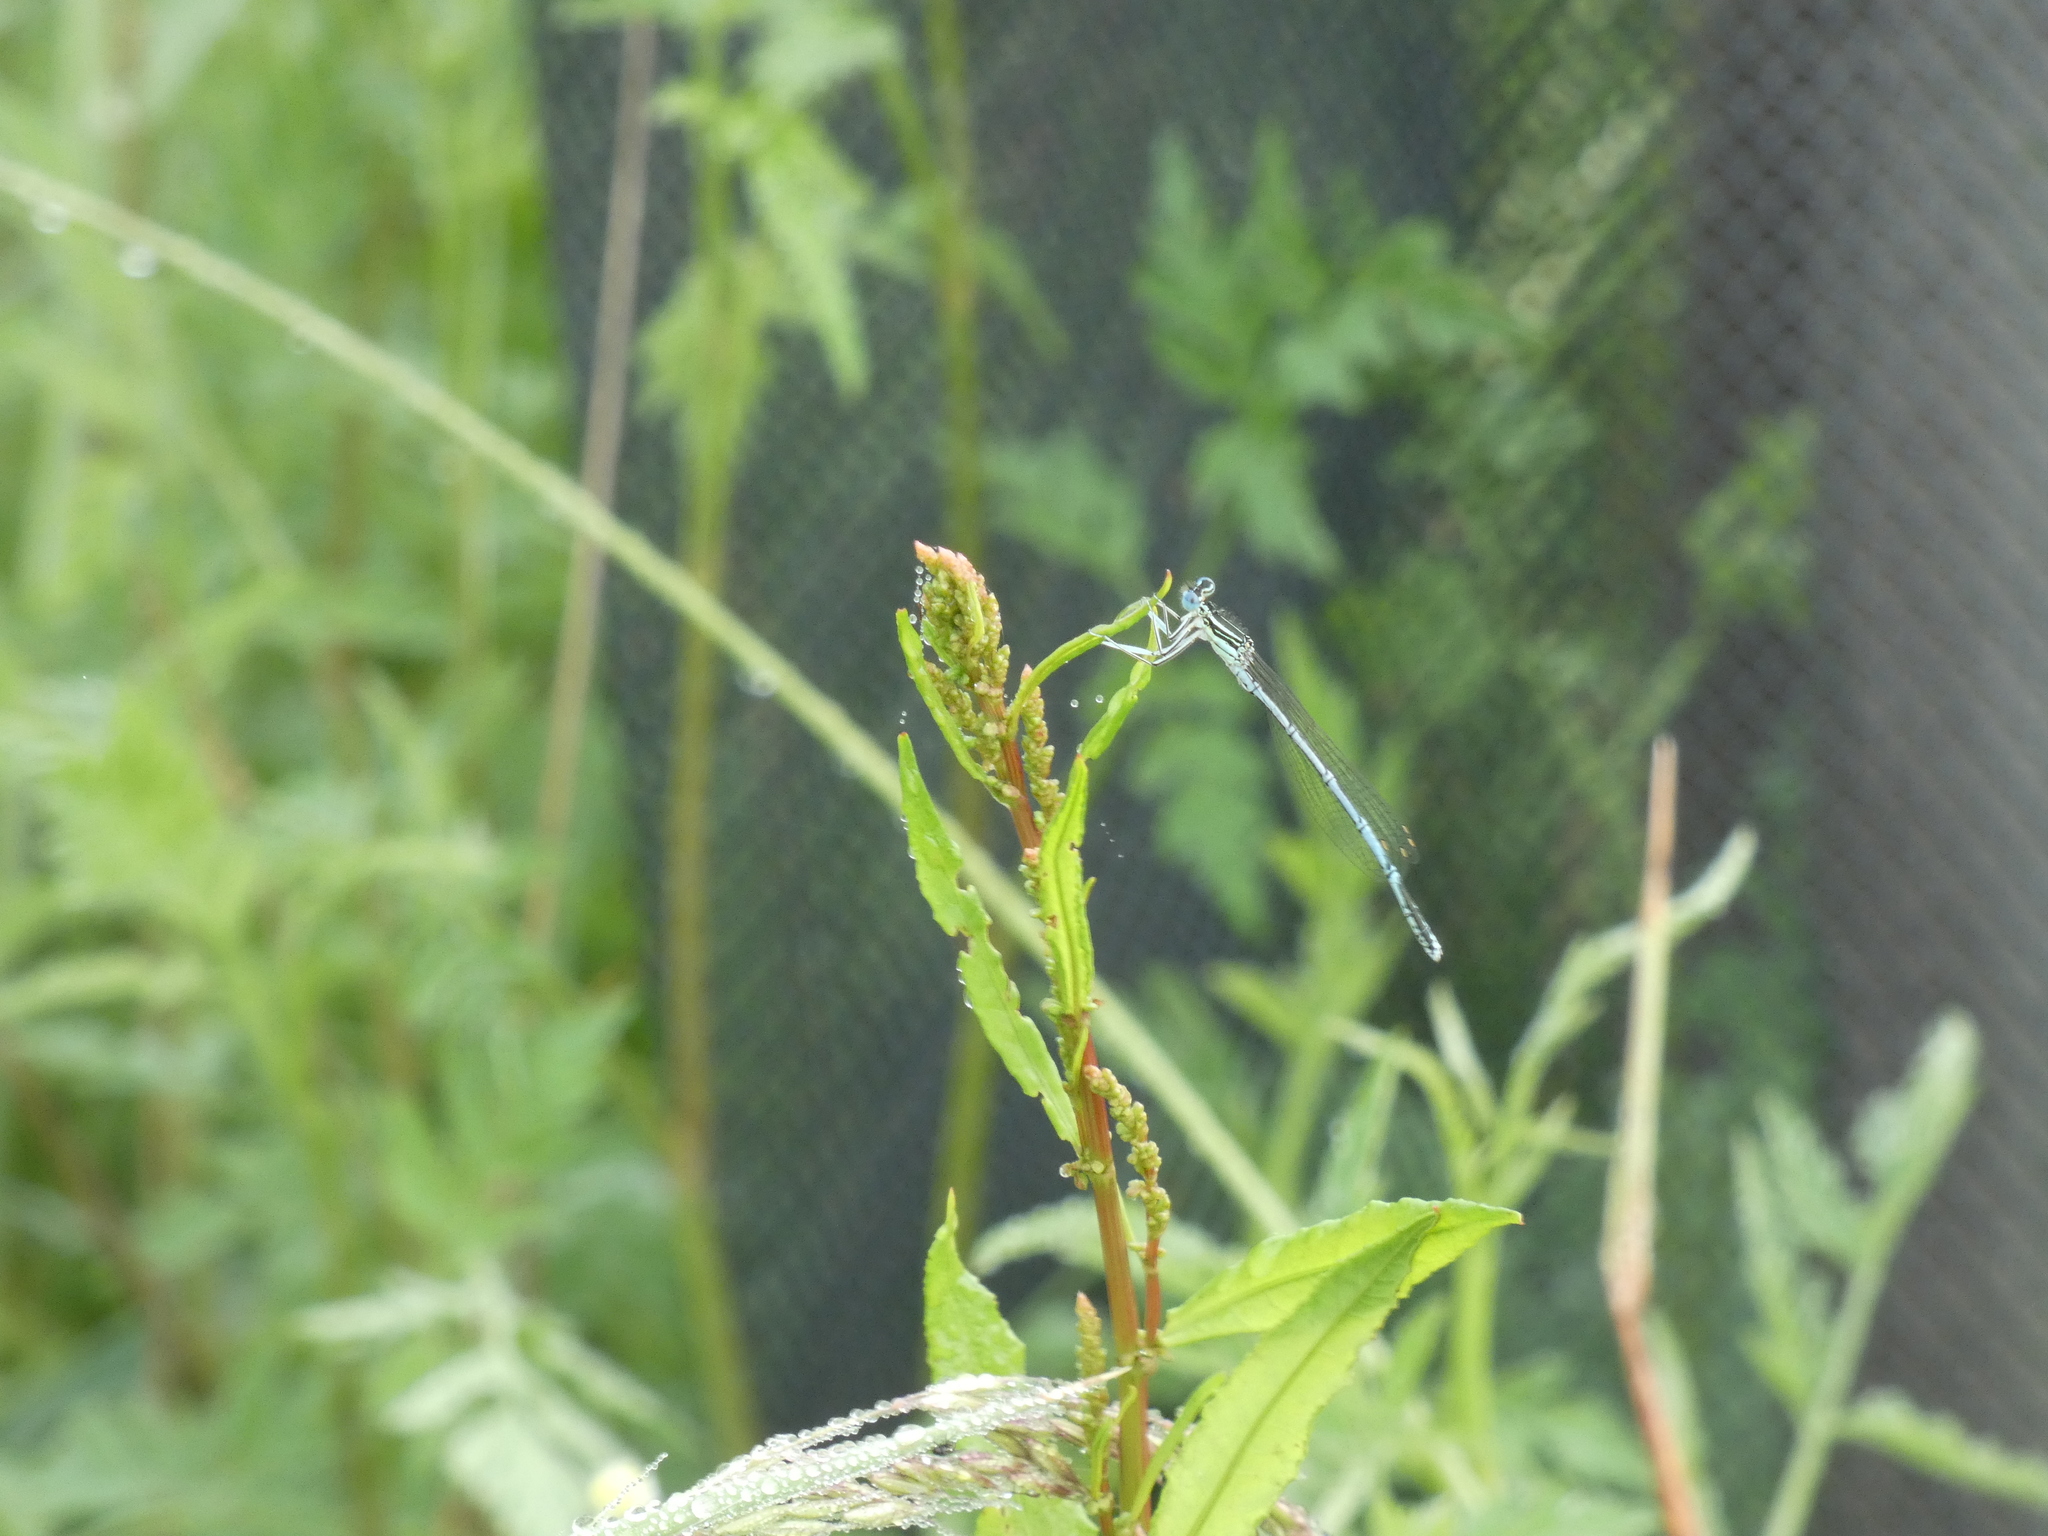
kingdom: Animalia
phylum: Arthropoda
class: Insecta
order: Odonata
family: Platycnemididae
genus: Platycnemis
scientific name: Platycnemis pennipes
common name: White-legged damselfly
